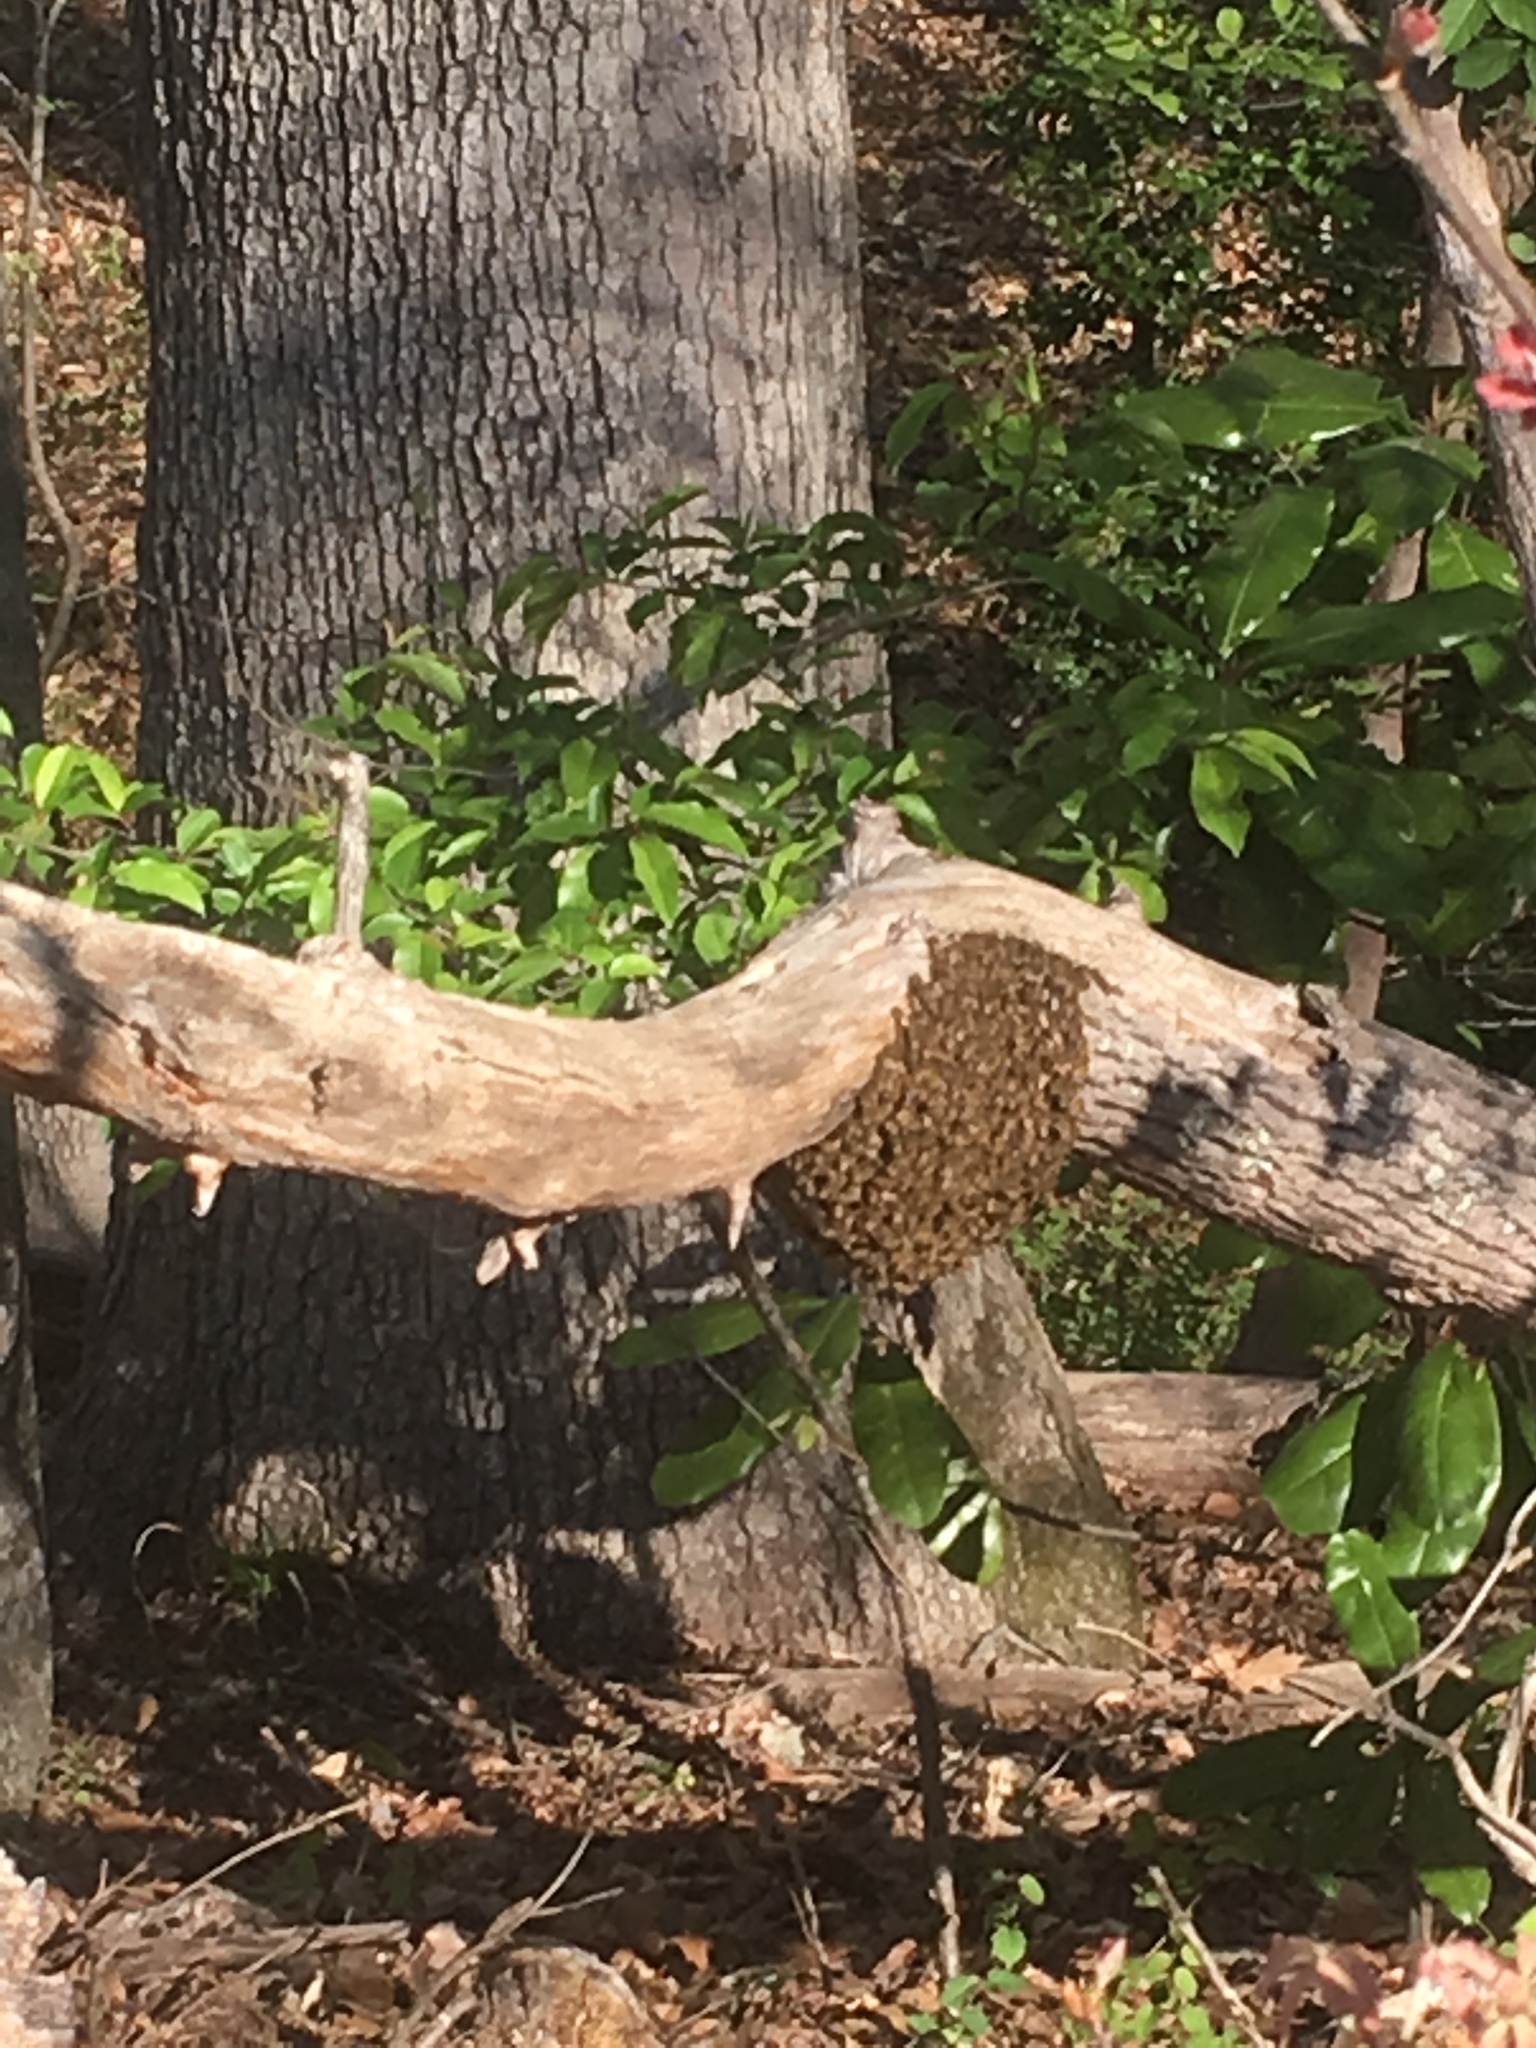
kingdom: Animalia
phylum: Arthropoda
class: Insecta
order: Hymenoptera
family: Apidae
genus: Apis
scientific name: Apis mellifera
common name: Honey bee
